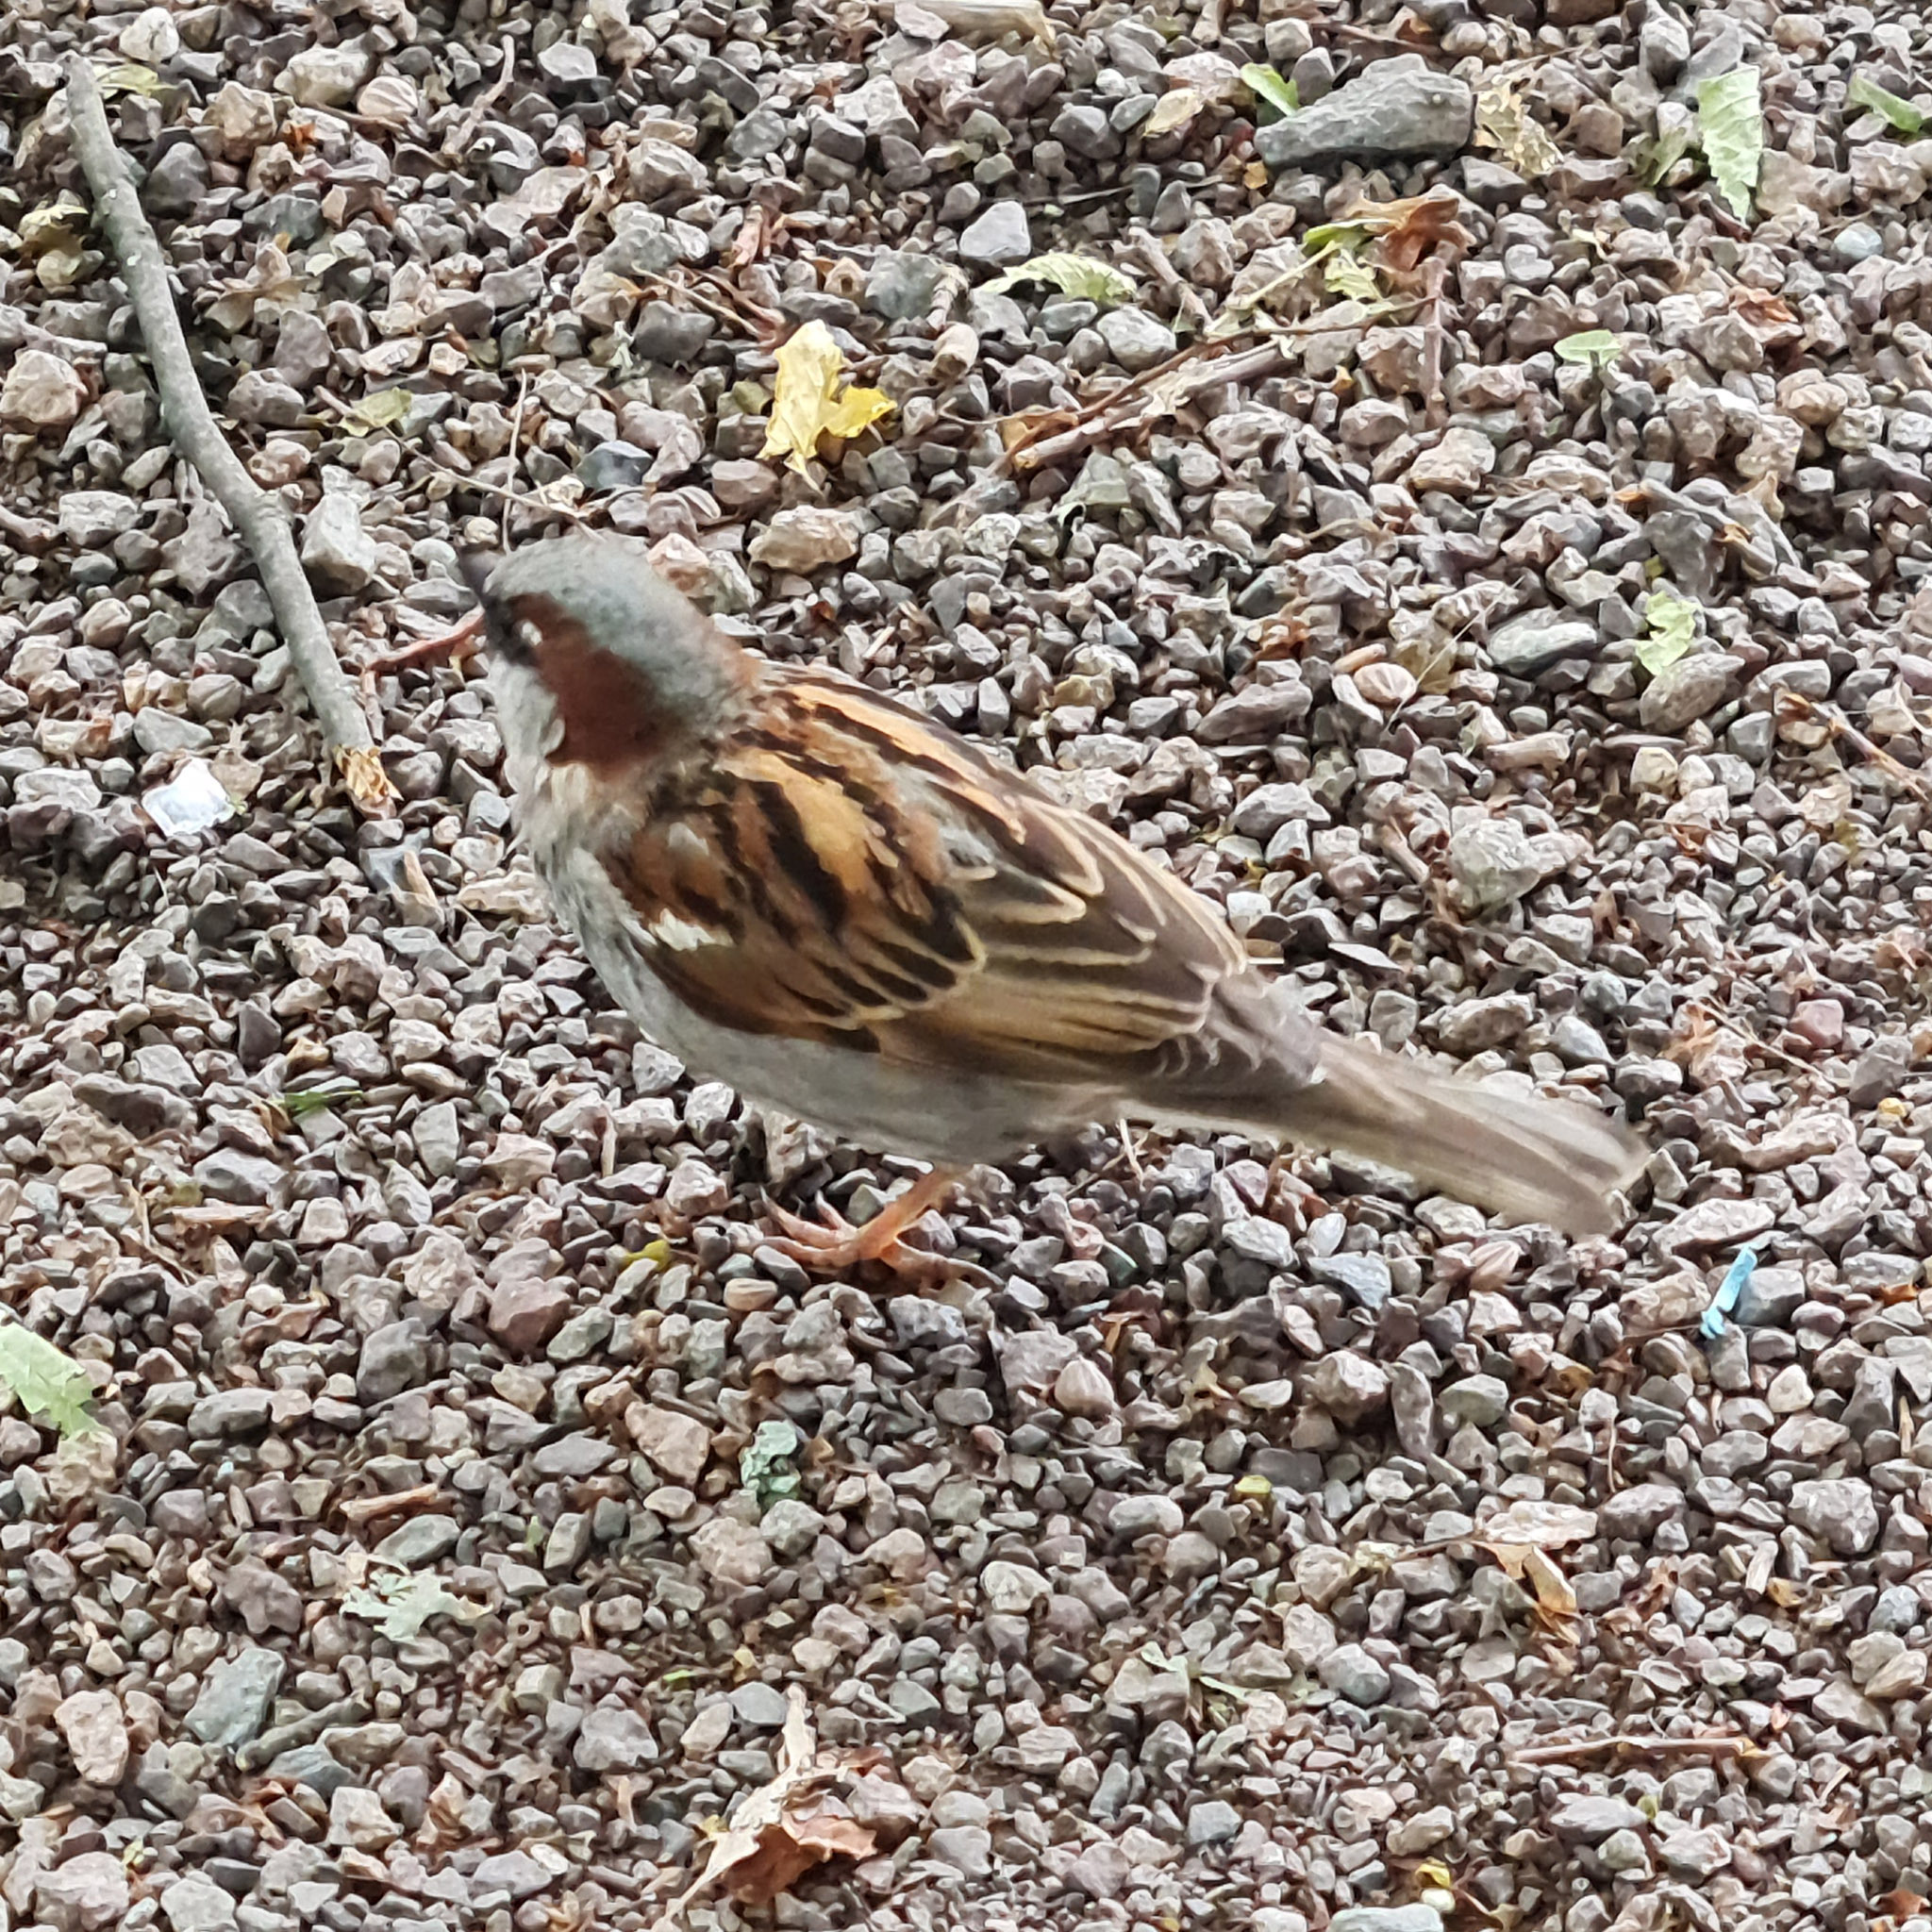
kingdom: Animalia
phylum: Chordata
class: Aves
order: Passeriformes
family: Passeridae
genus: Passer
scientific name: Passer domesticus
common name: House sparrow
